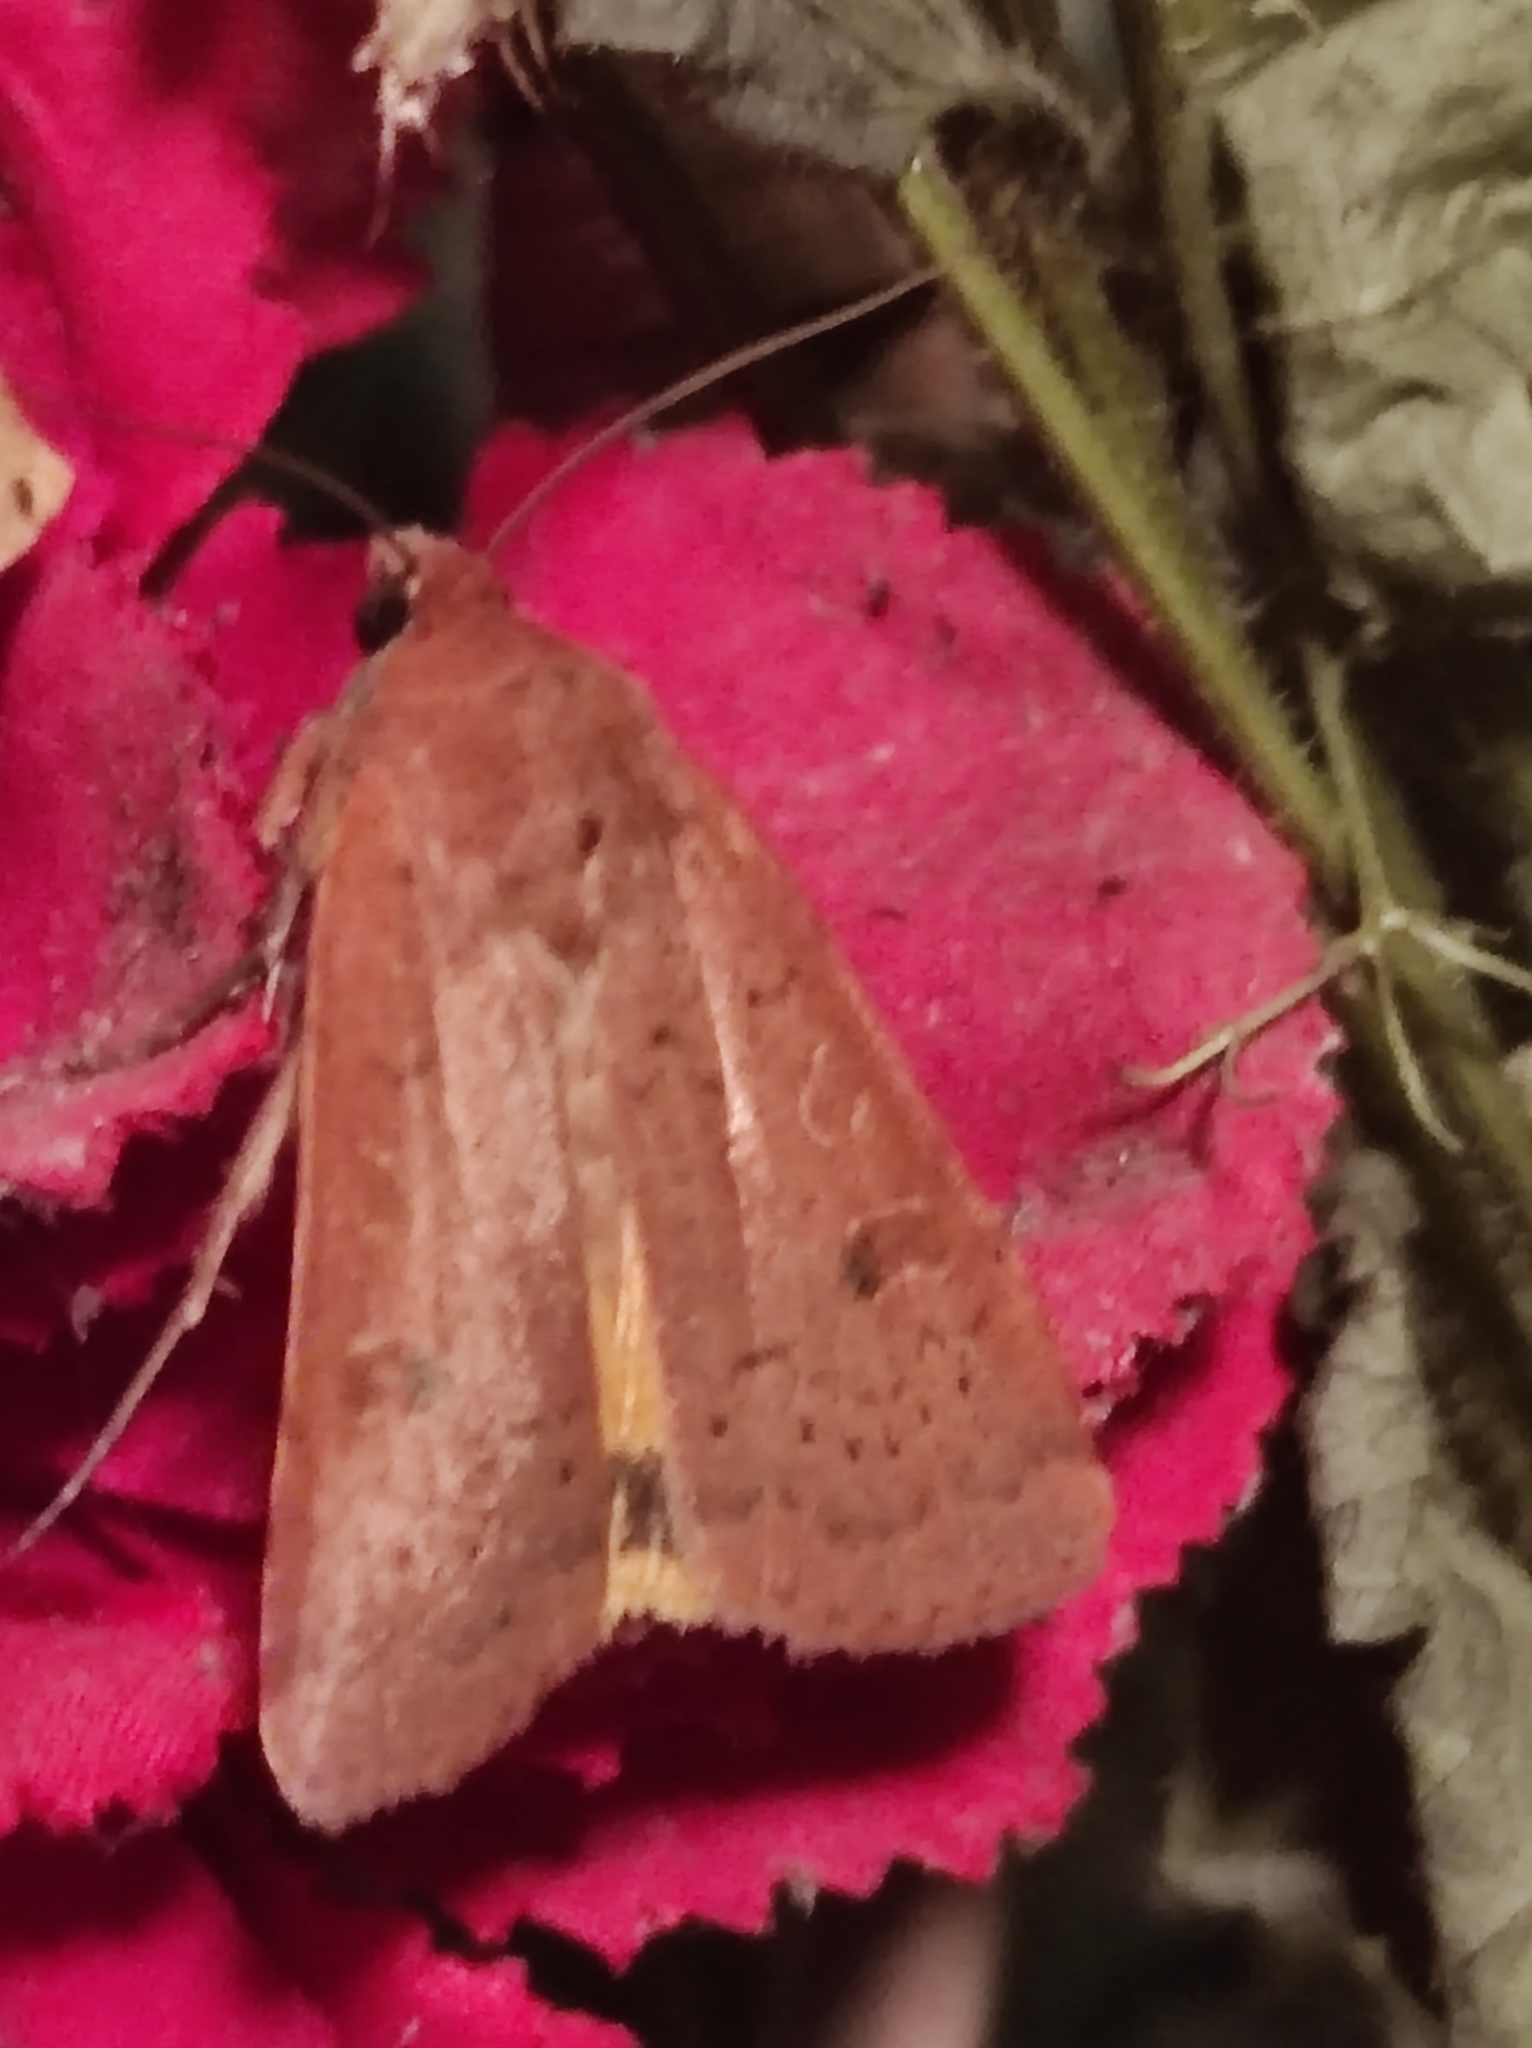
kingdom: Animalia
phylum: Arthropoda
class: Insecta
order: Lepidoptera
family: Noctuidae
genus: Noctua
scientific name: Noctua comes
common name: Lesser yellow underwing
